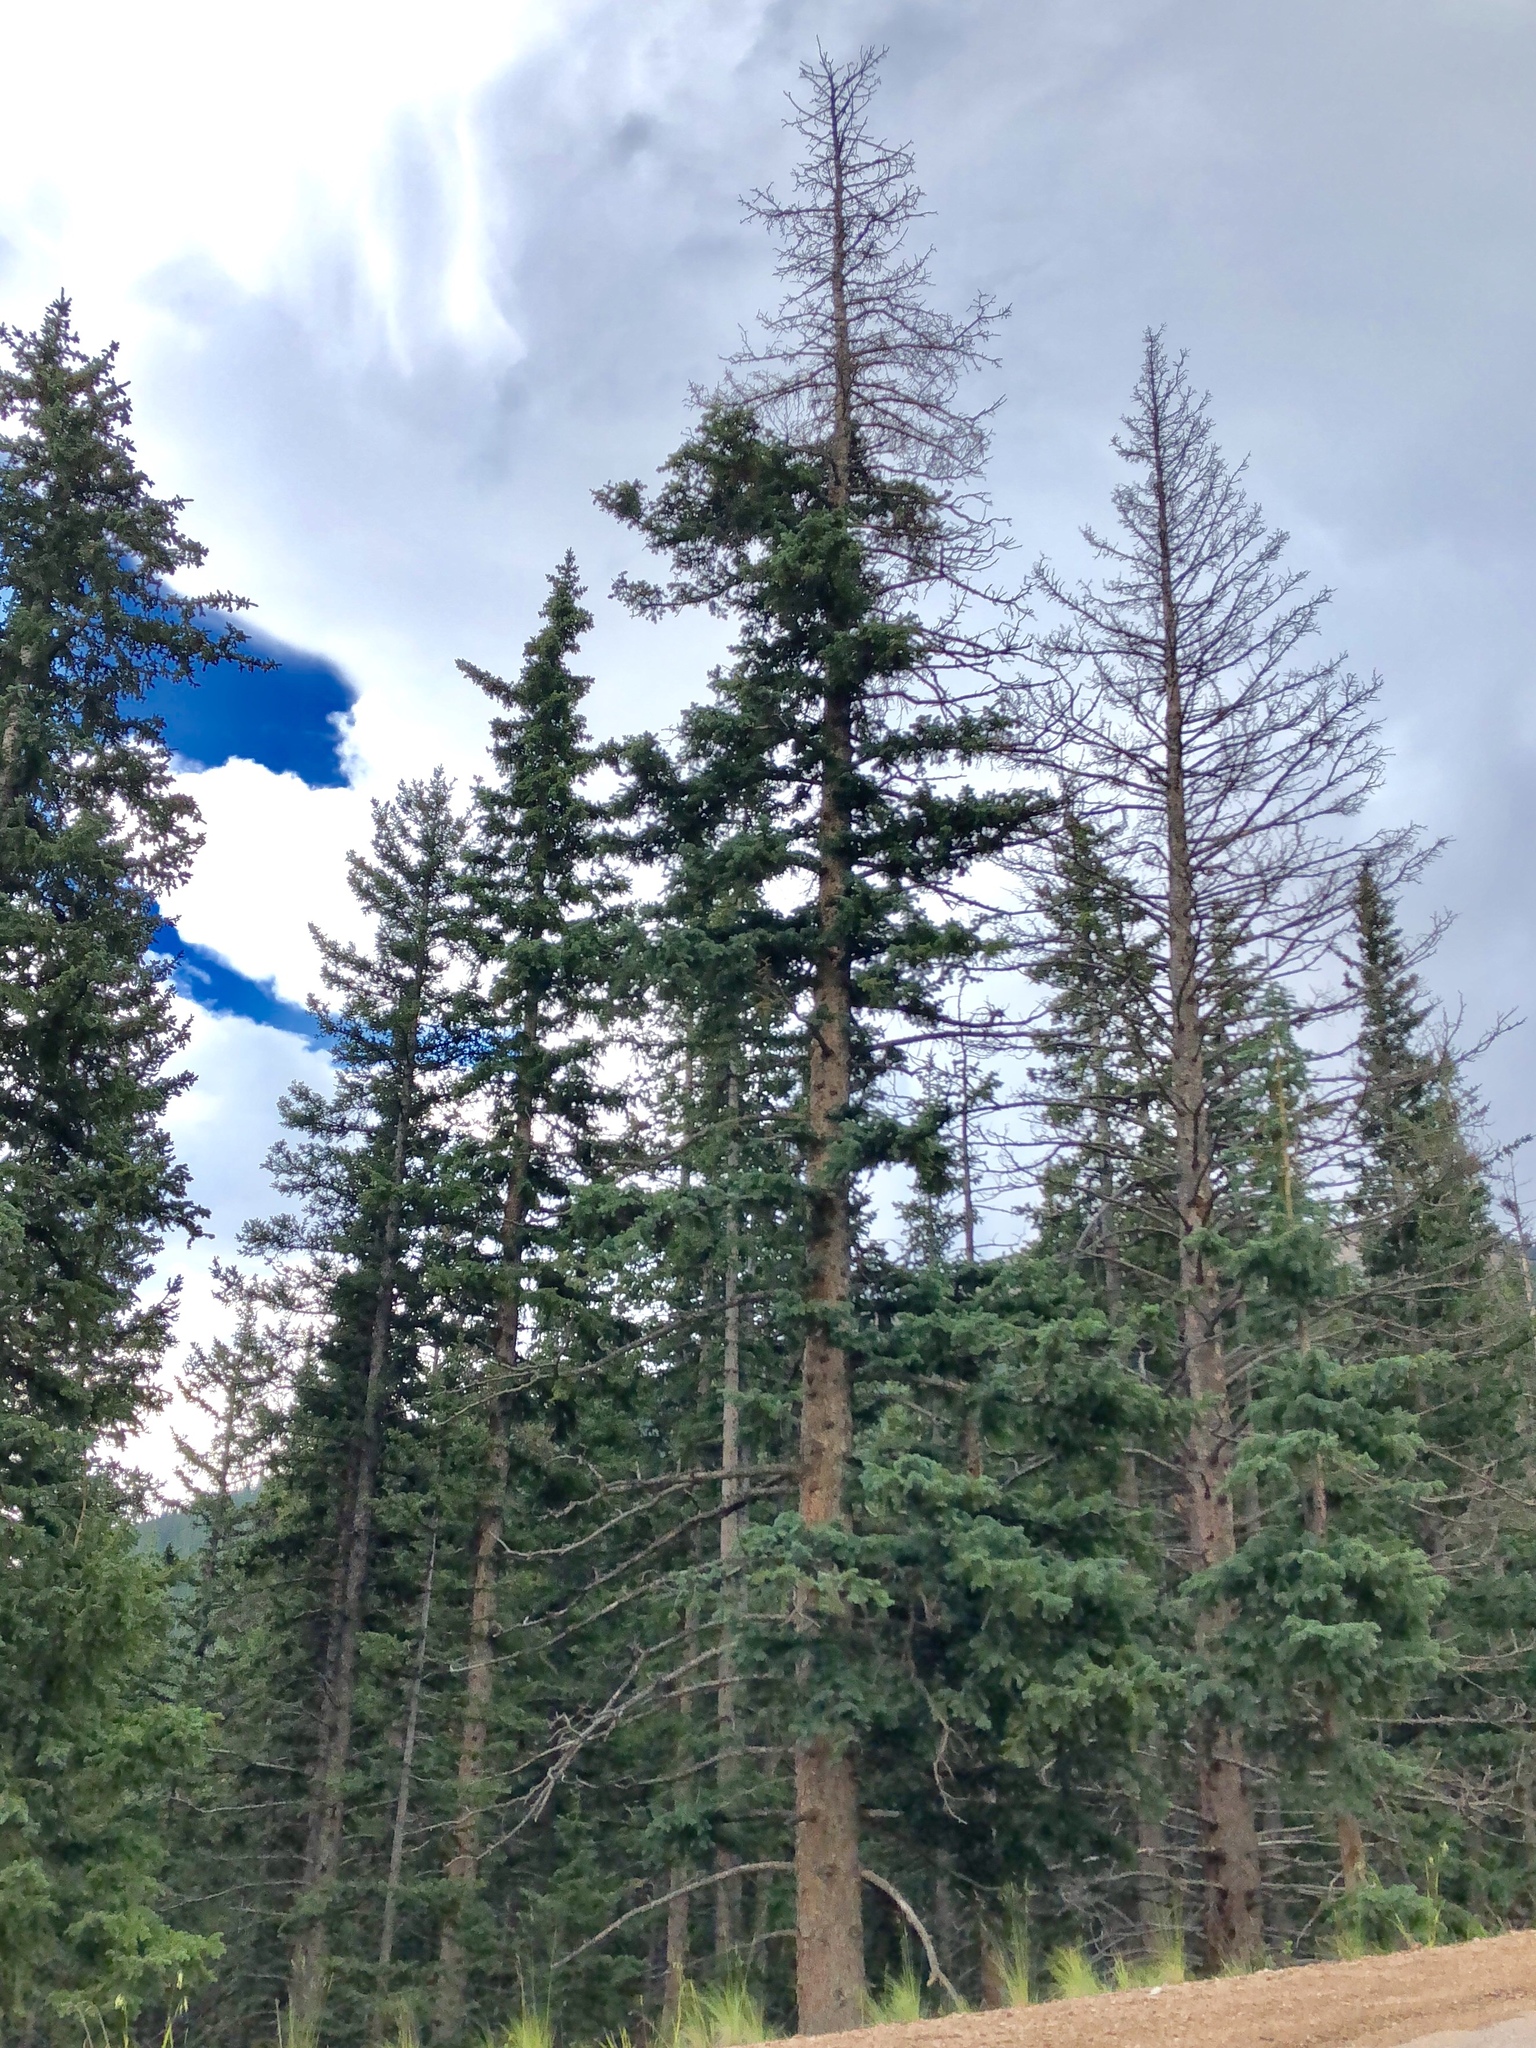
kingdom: Plantae
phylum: Tracheophyta
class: Pinopsida
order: Pinales
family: Pinaceae
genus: Picea
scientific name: Picea engelmannii
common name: Engelmann spruce
